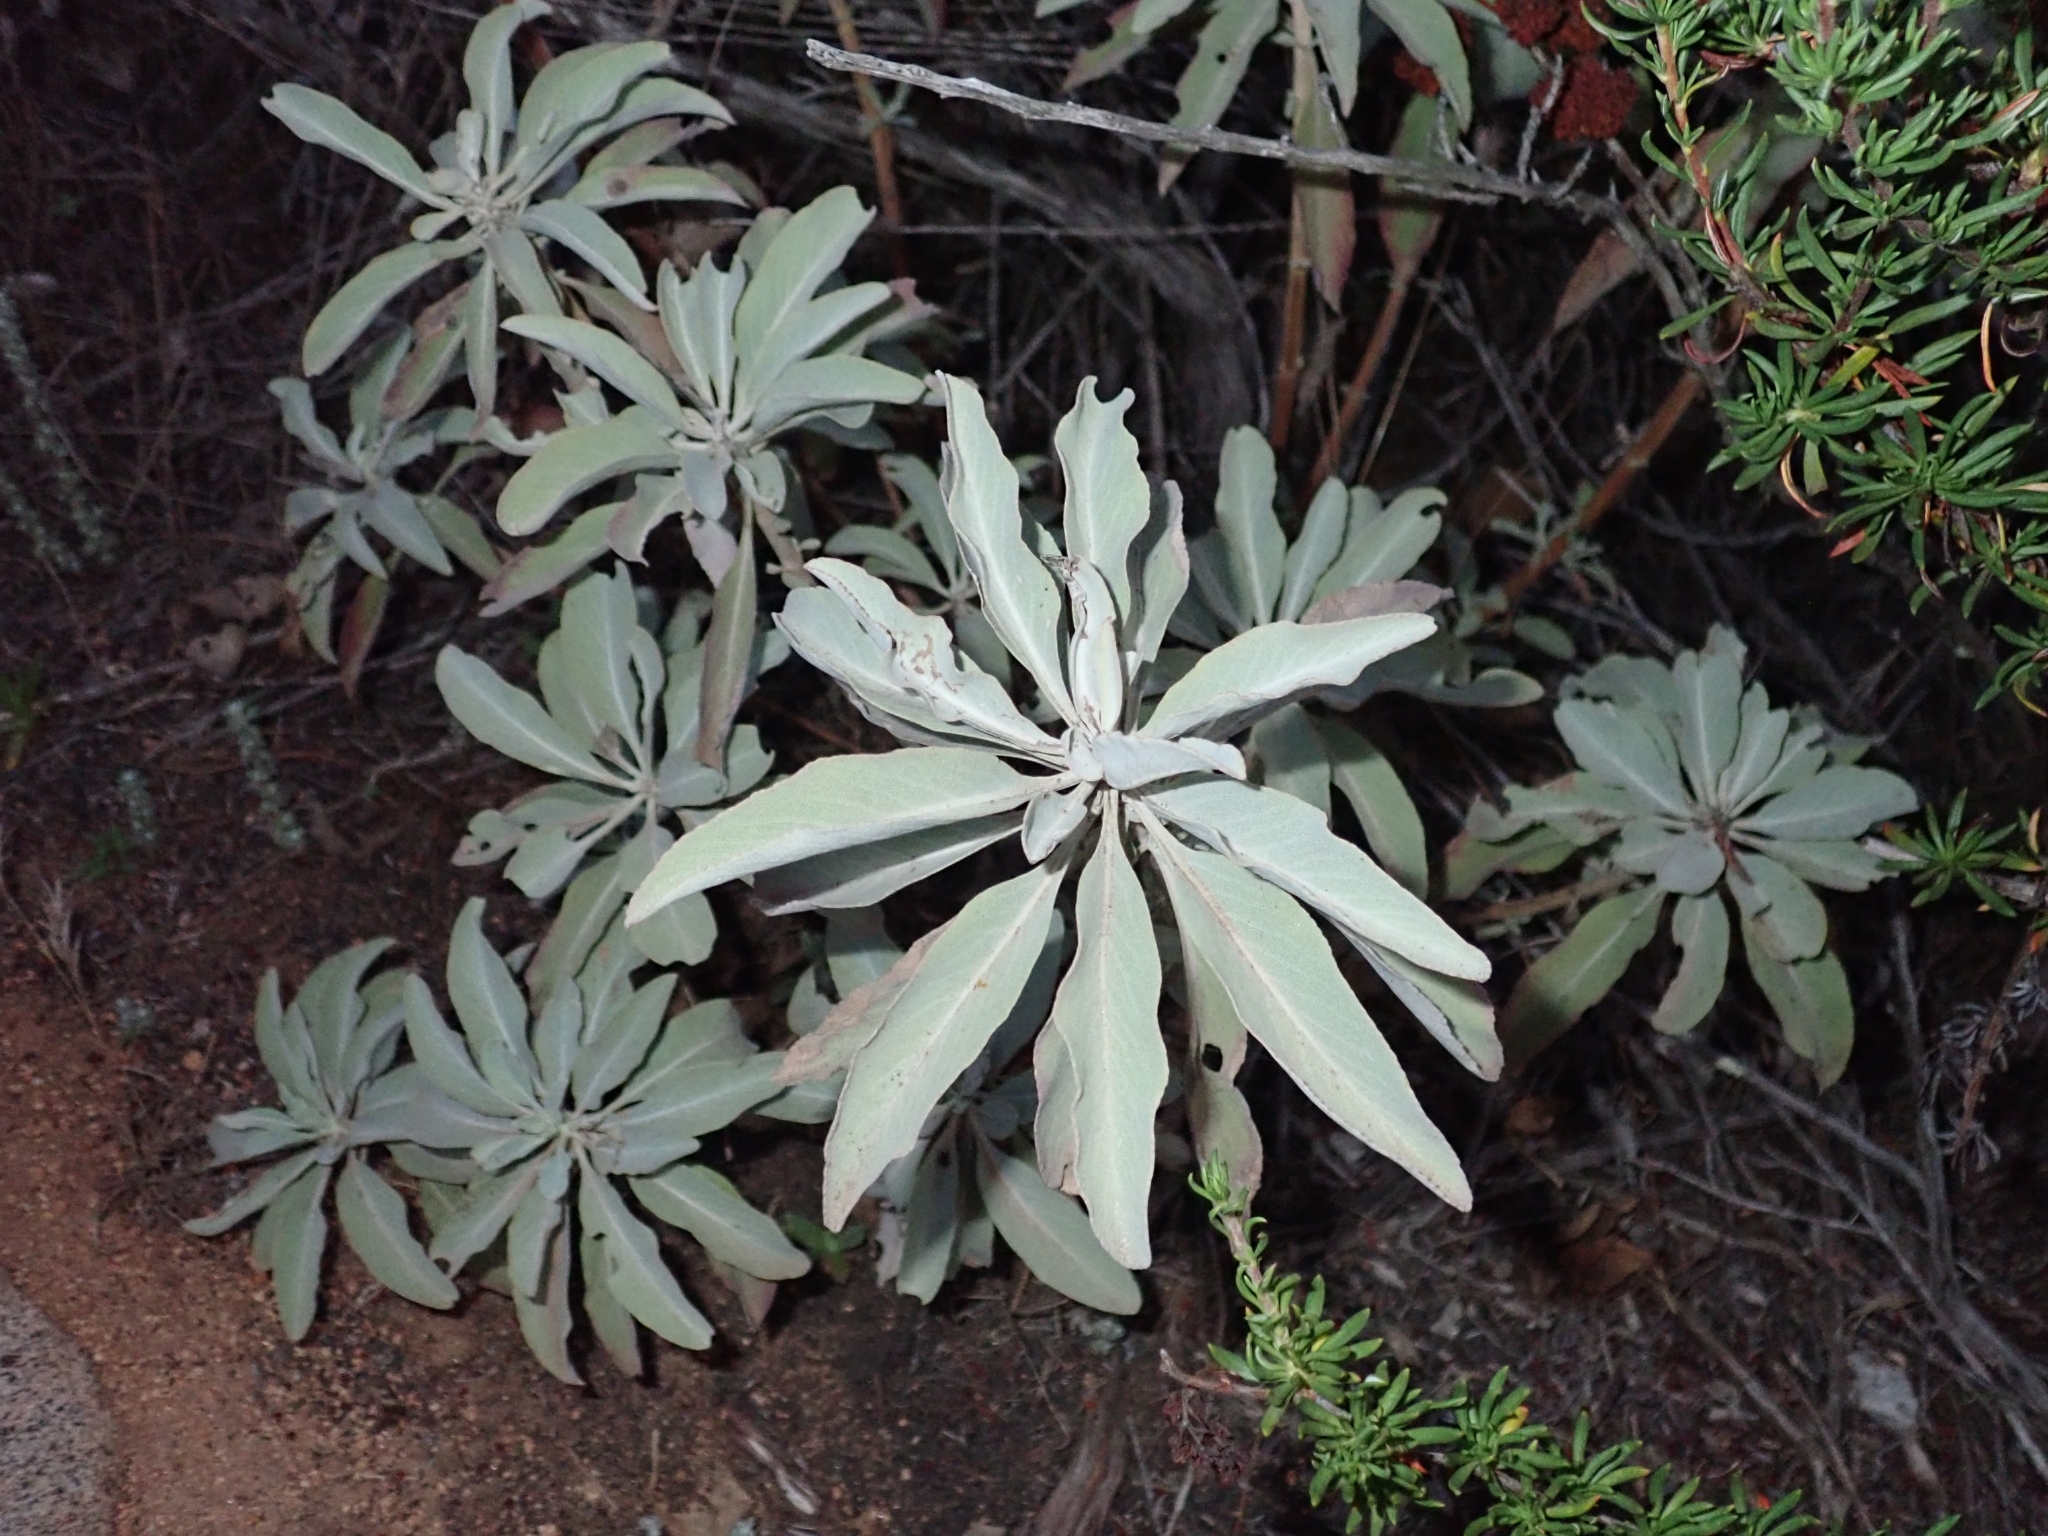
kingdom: Plantae
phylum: Tracheophyta
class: Magnoliopsida
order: Lamiales
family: Lamiaceae
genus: Salvia
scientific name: Salvia apiana
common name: White sage
